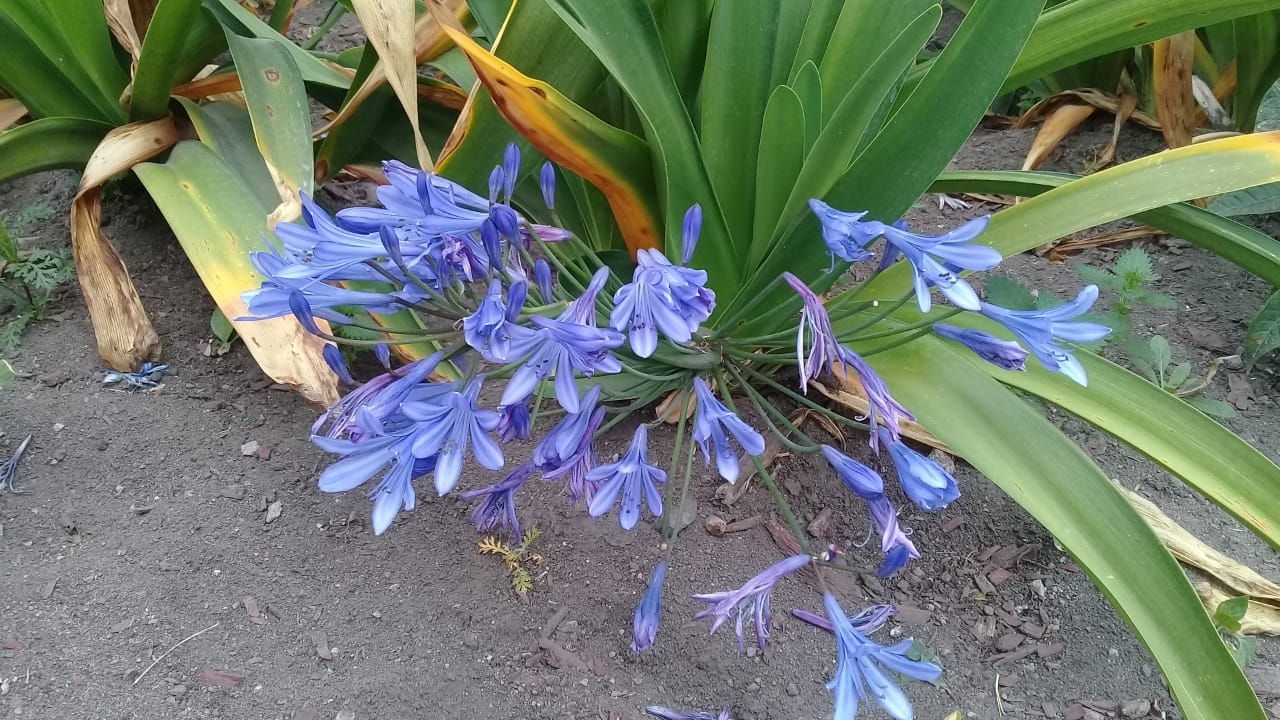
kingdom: Plantae
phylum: Tracheophyta
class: Liliopsida
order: Asparagales
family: Amaryllidaceae
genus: Agapanthus
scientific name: Agapanthus praecox
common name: African-lily
